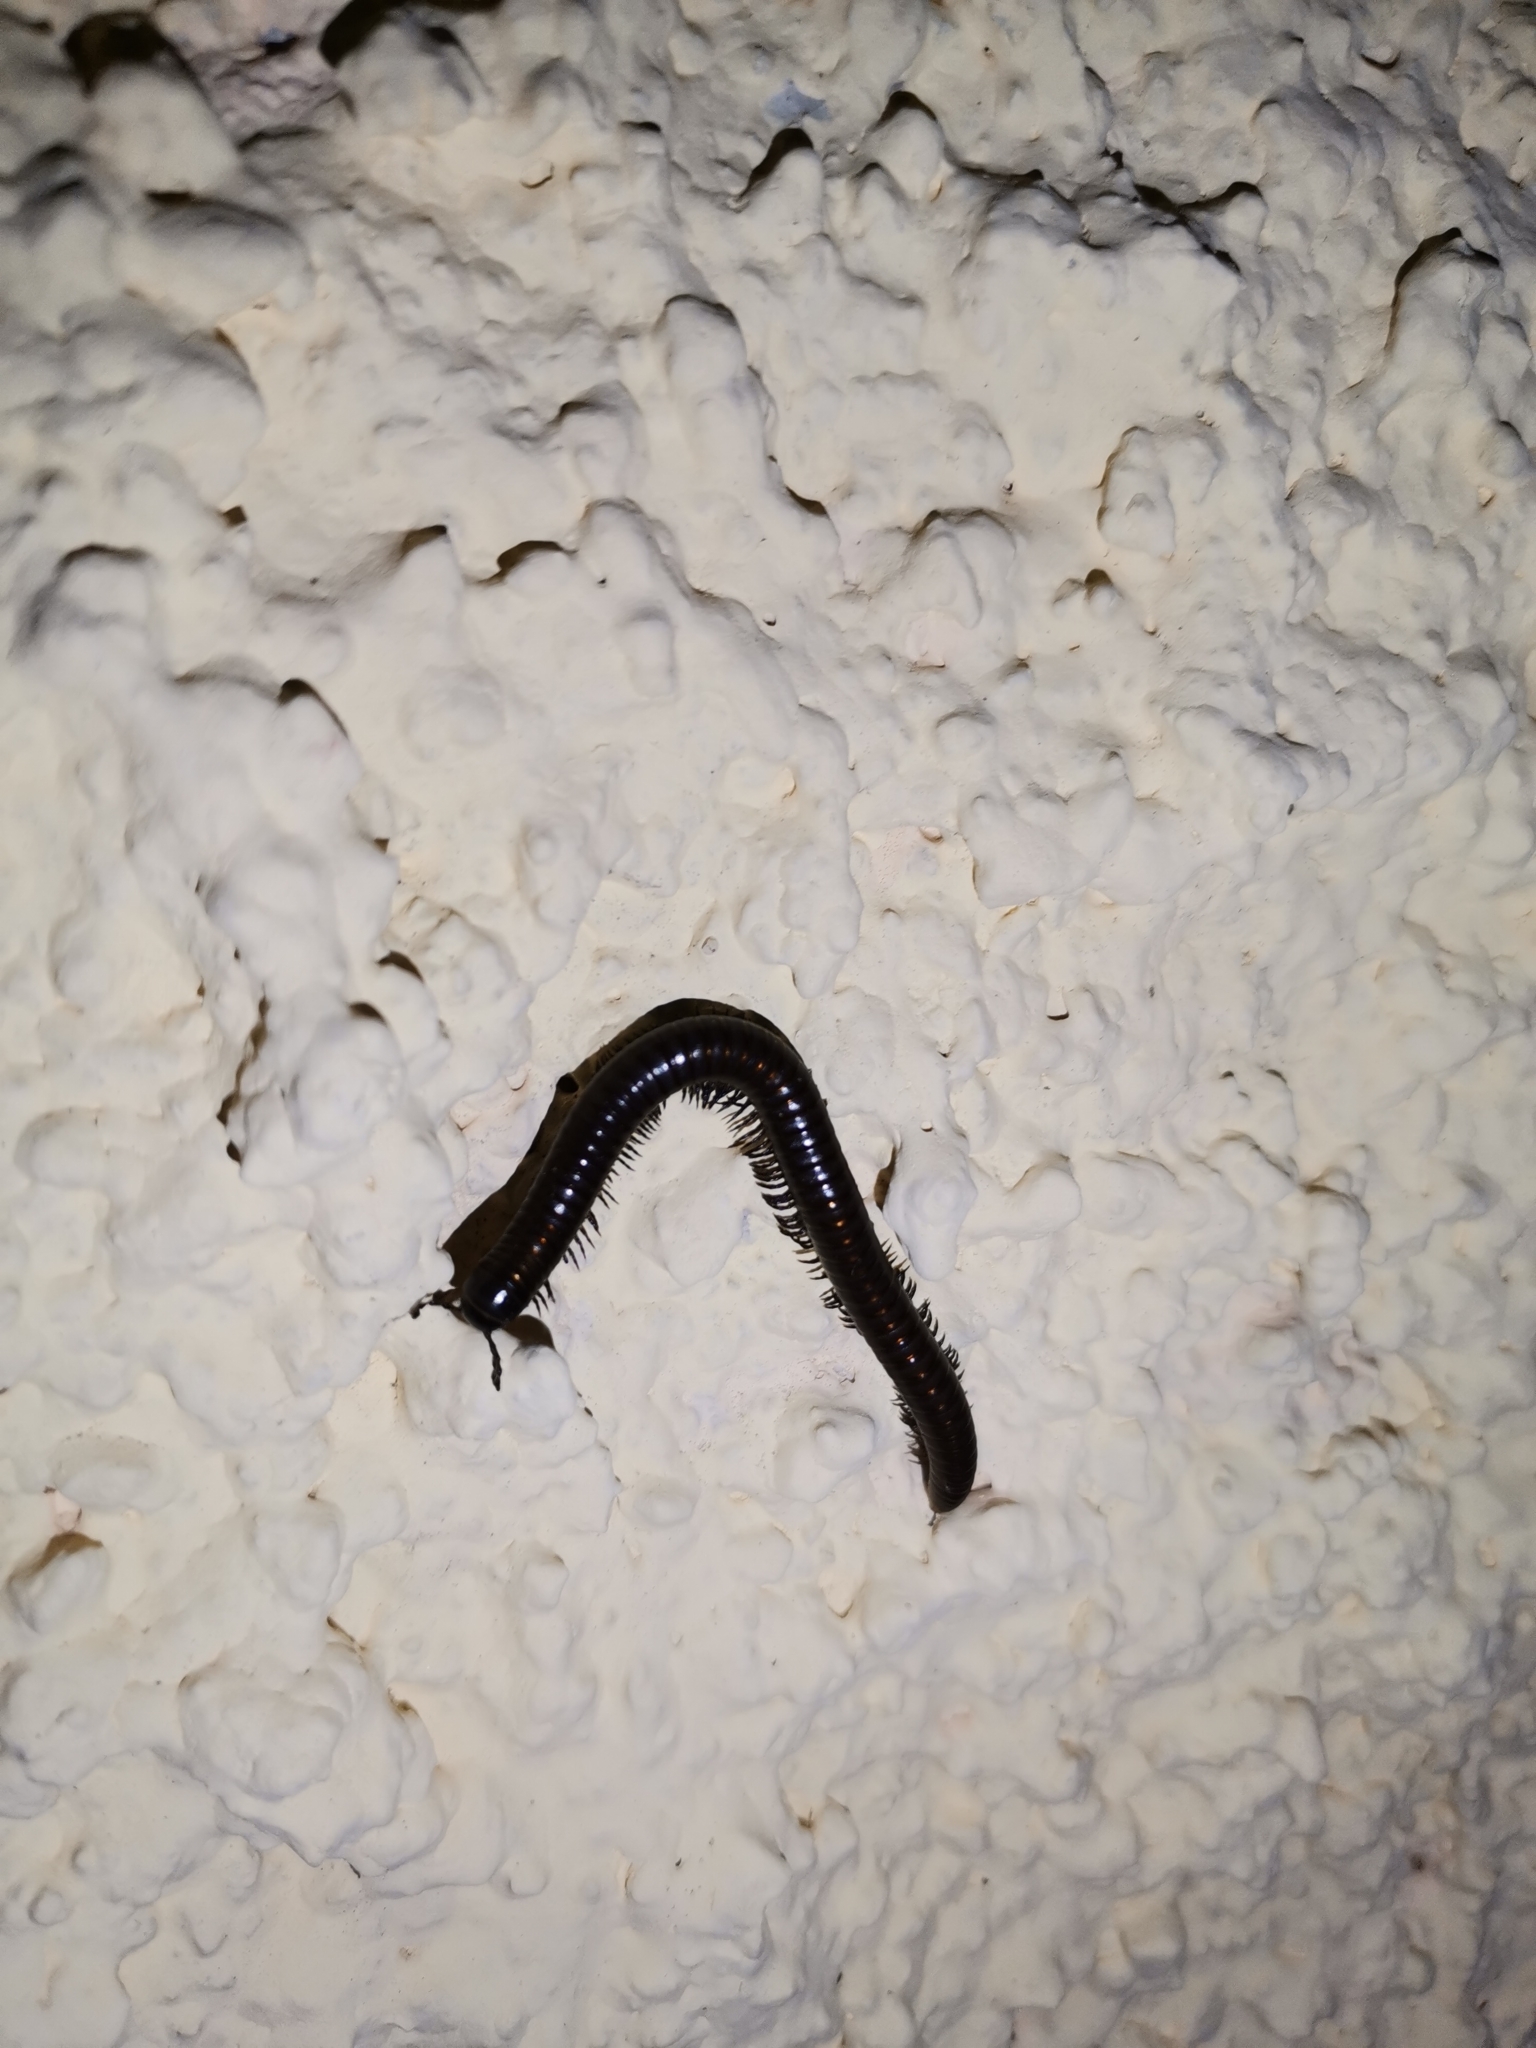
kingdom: Animalia
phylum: Arthropoda
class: Diplopoda
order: Julida
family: Julidae
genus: Pachyiulus
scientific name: Pachyiulus varius
